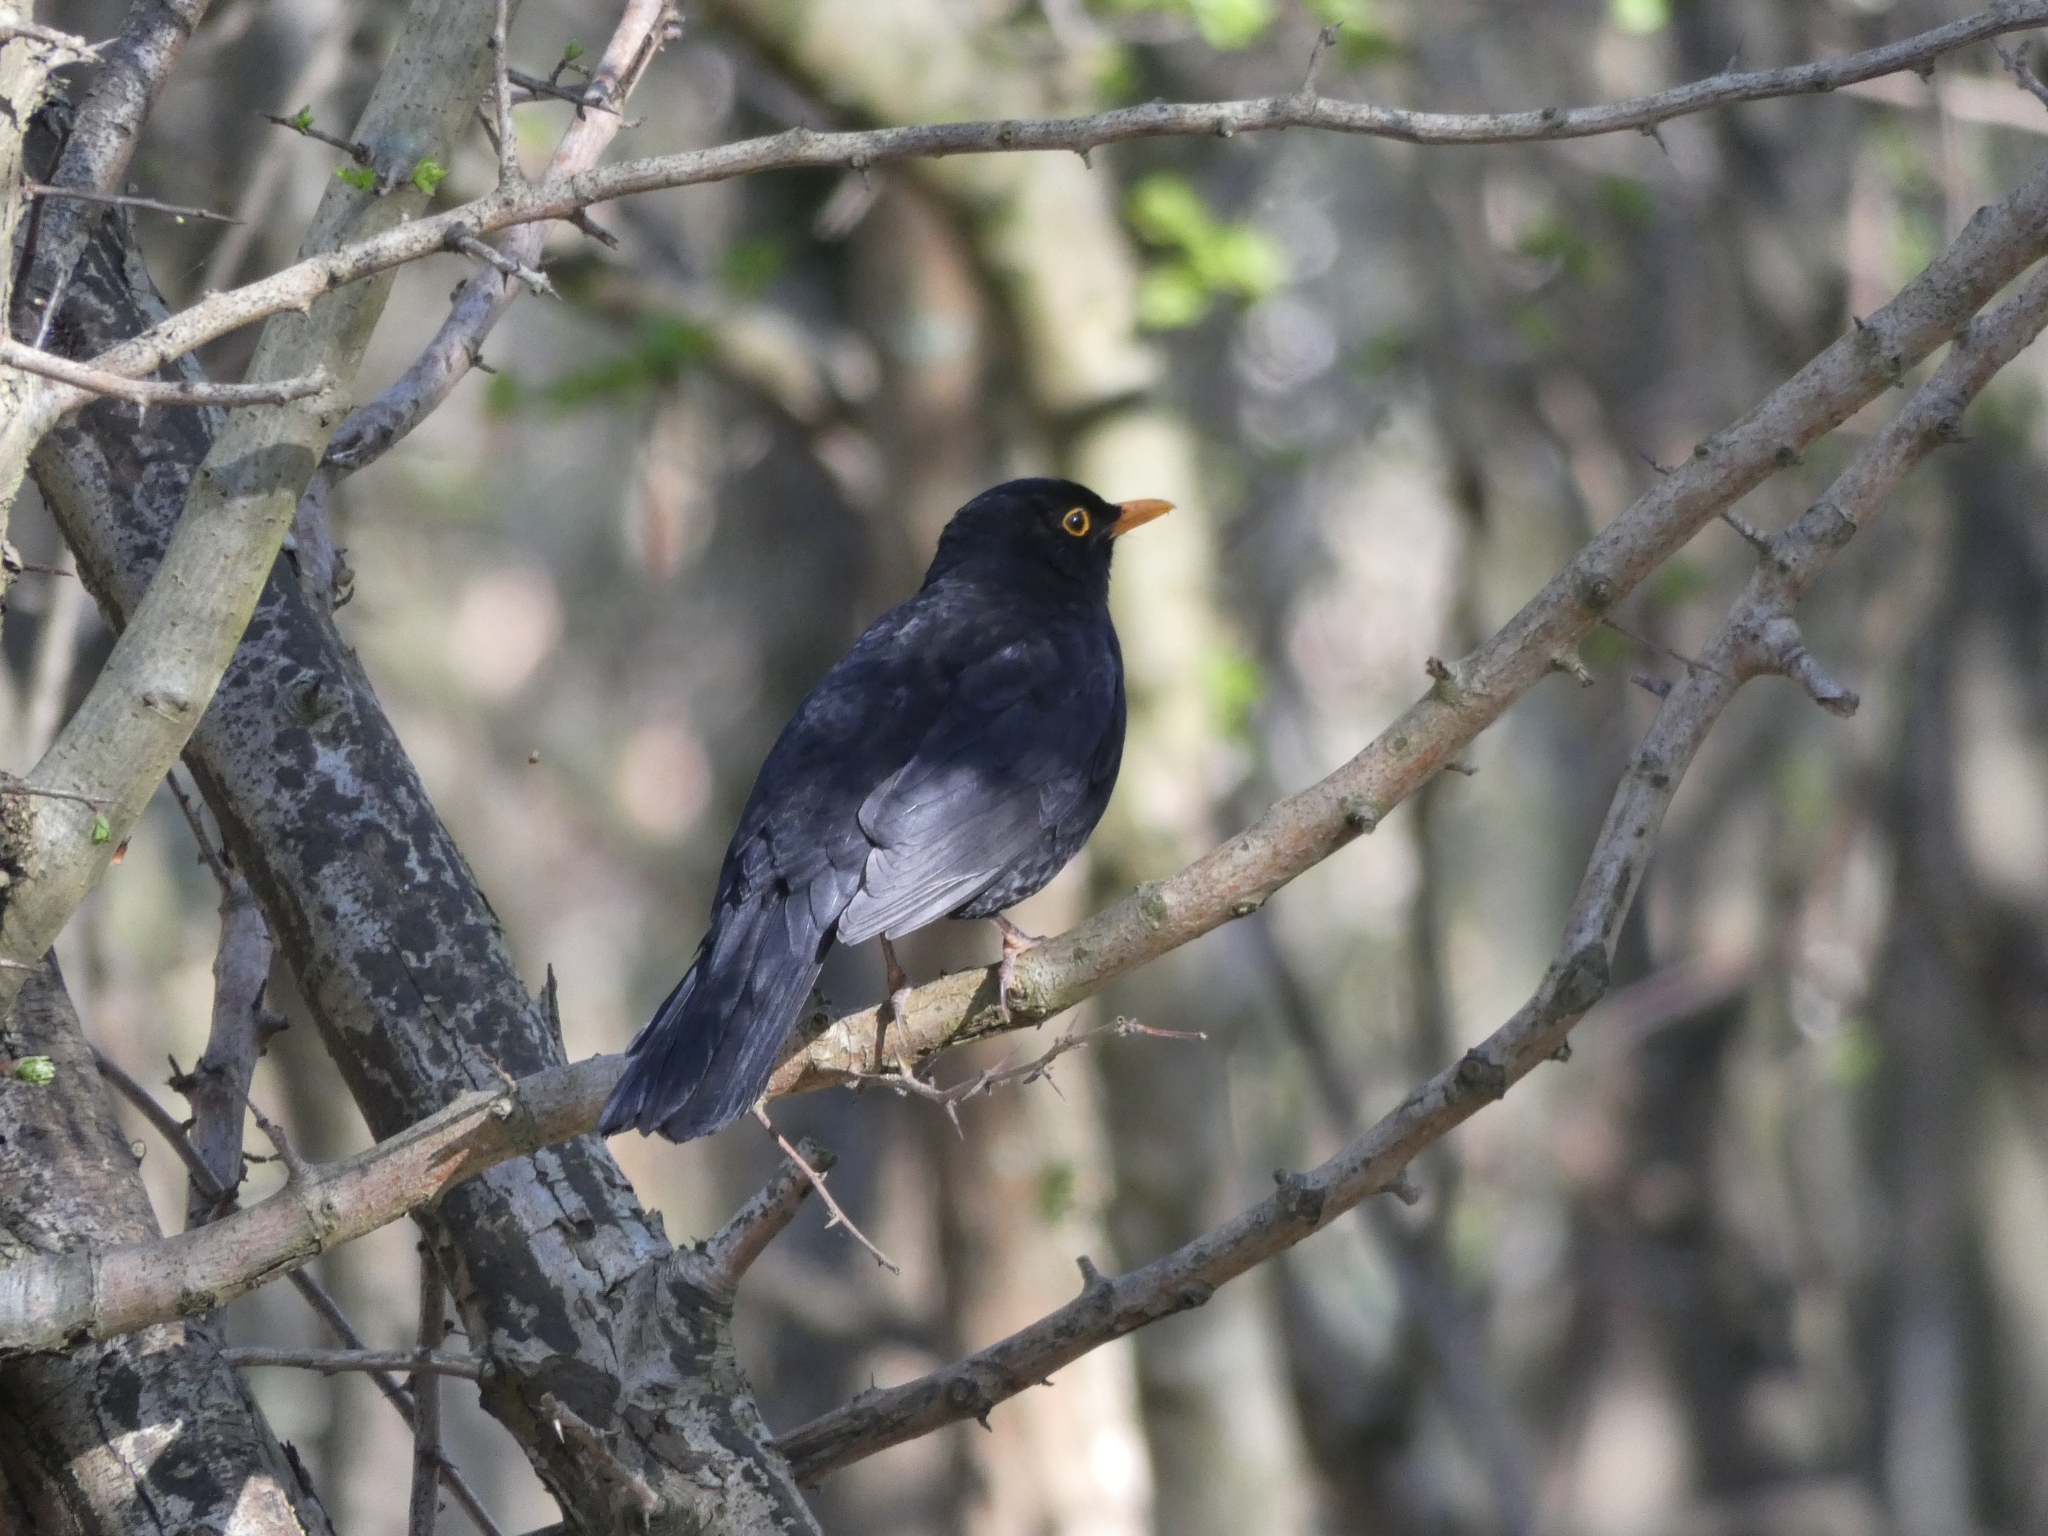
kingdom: Animalia
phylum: Chordata
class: Aves
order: Passeriformes
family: Turdidae
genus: Turdus
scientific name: Turdus merula
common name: Common blackbird
